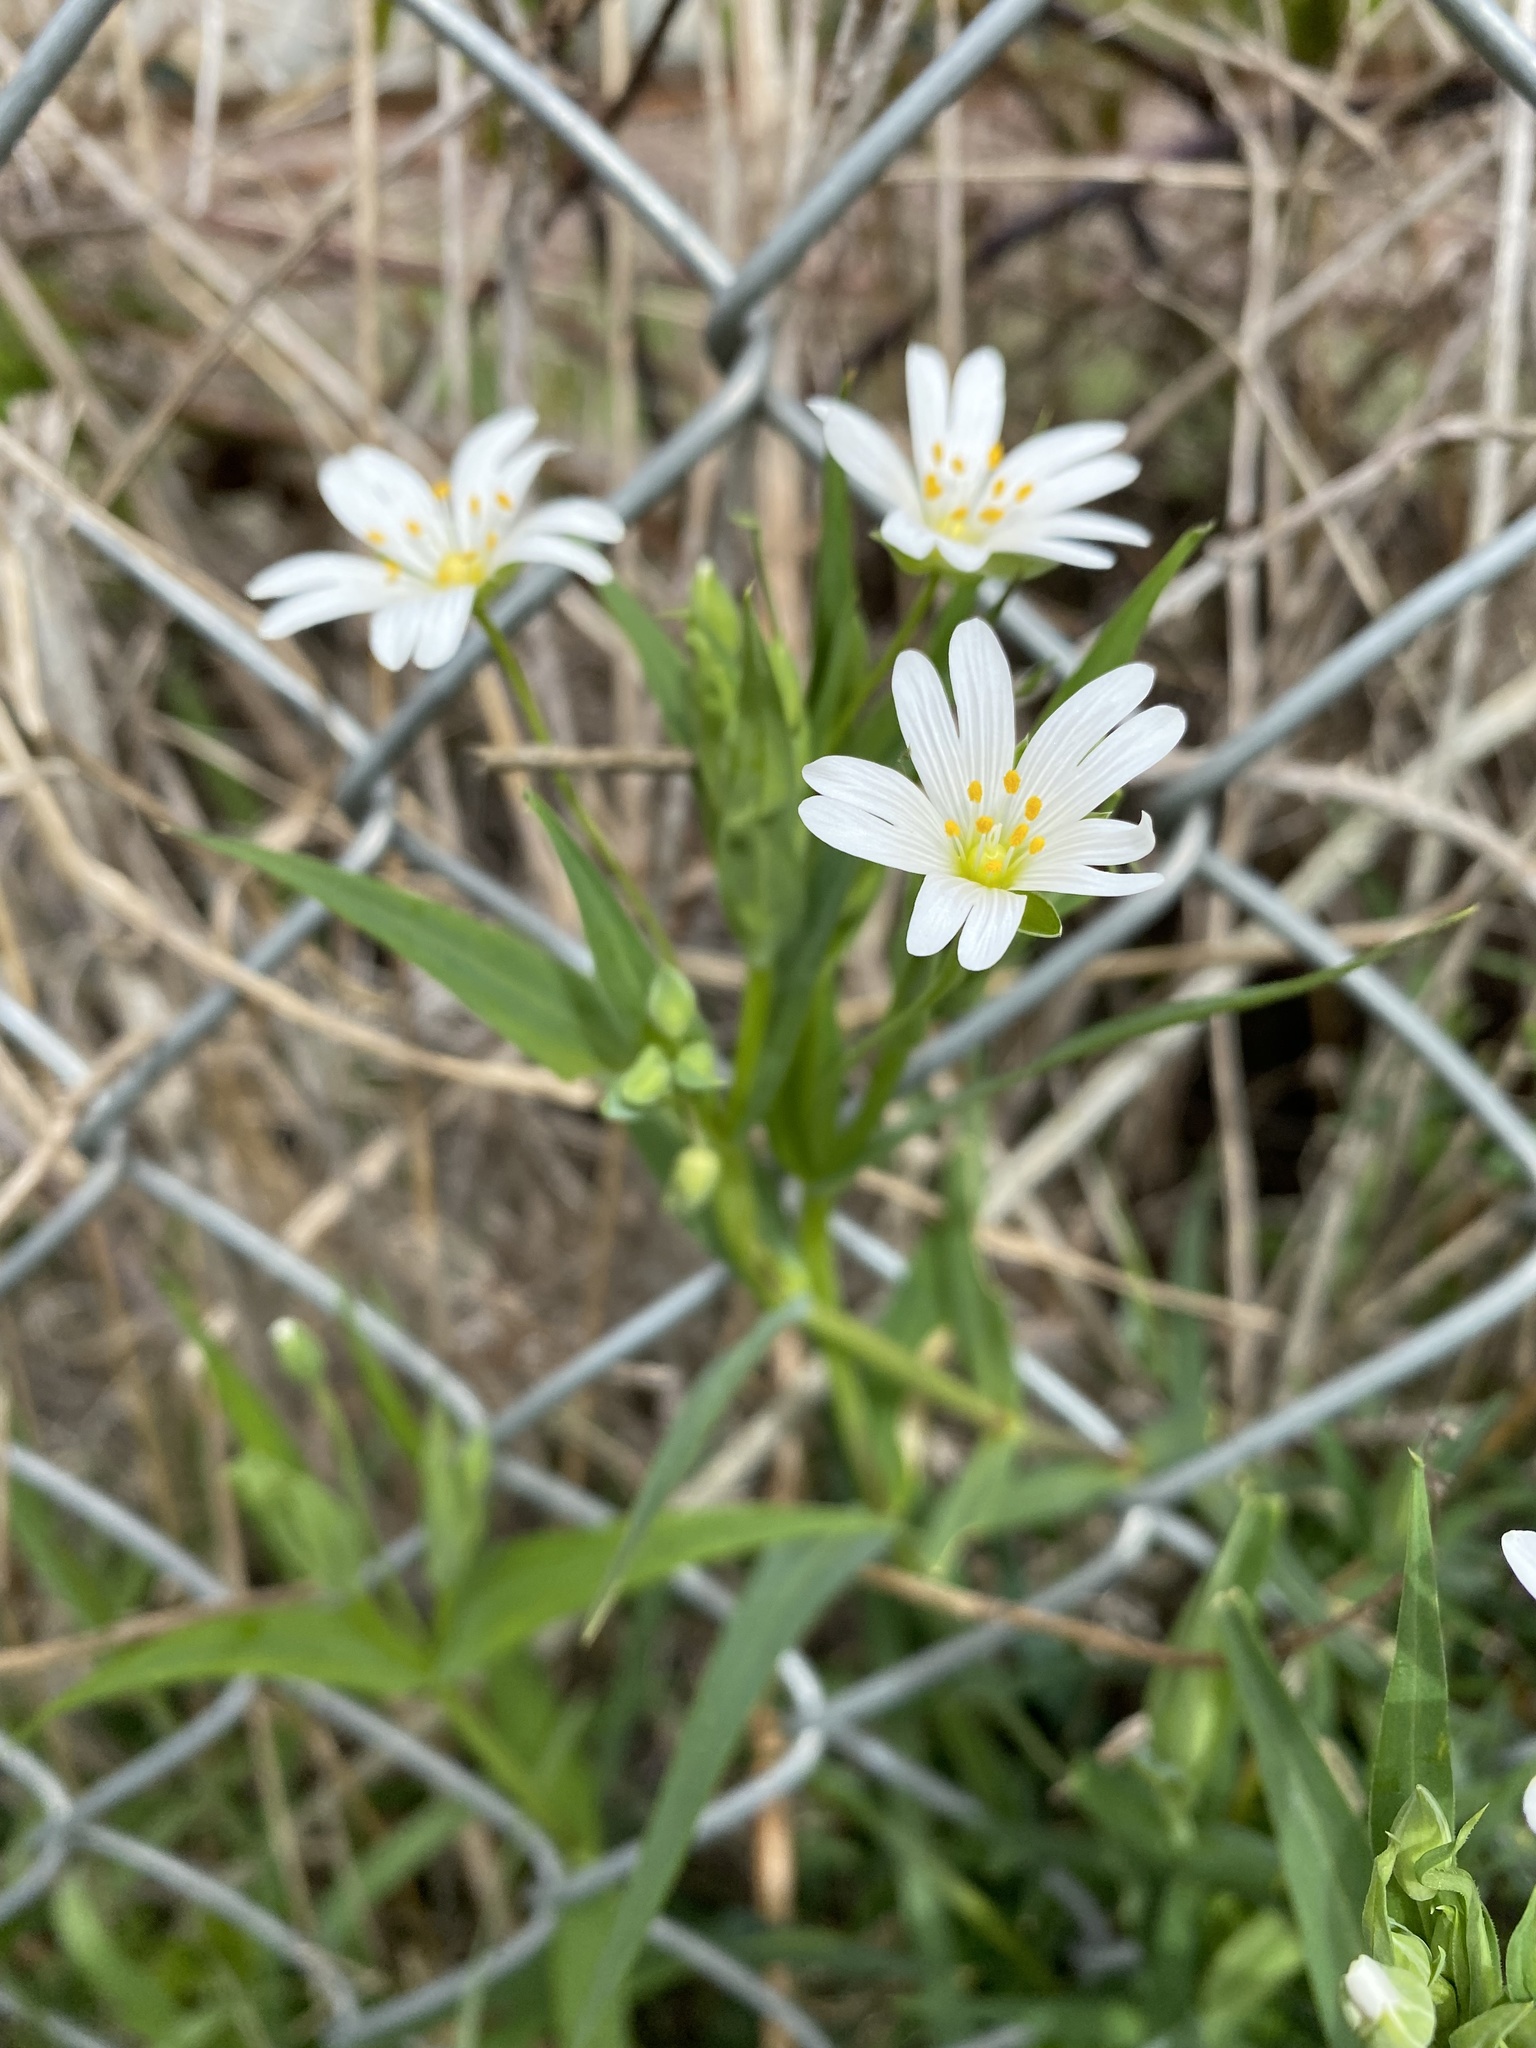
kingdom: Plantae
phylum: Tracheophyta
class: Magnoliopsida
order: Caryophyllales
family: Caryophyllaceae
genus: Rabelera
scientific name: Rabelera holostea
